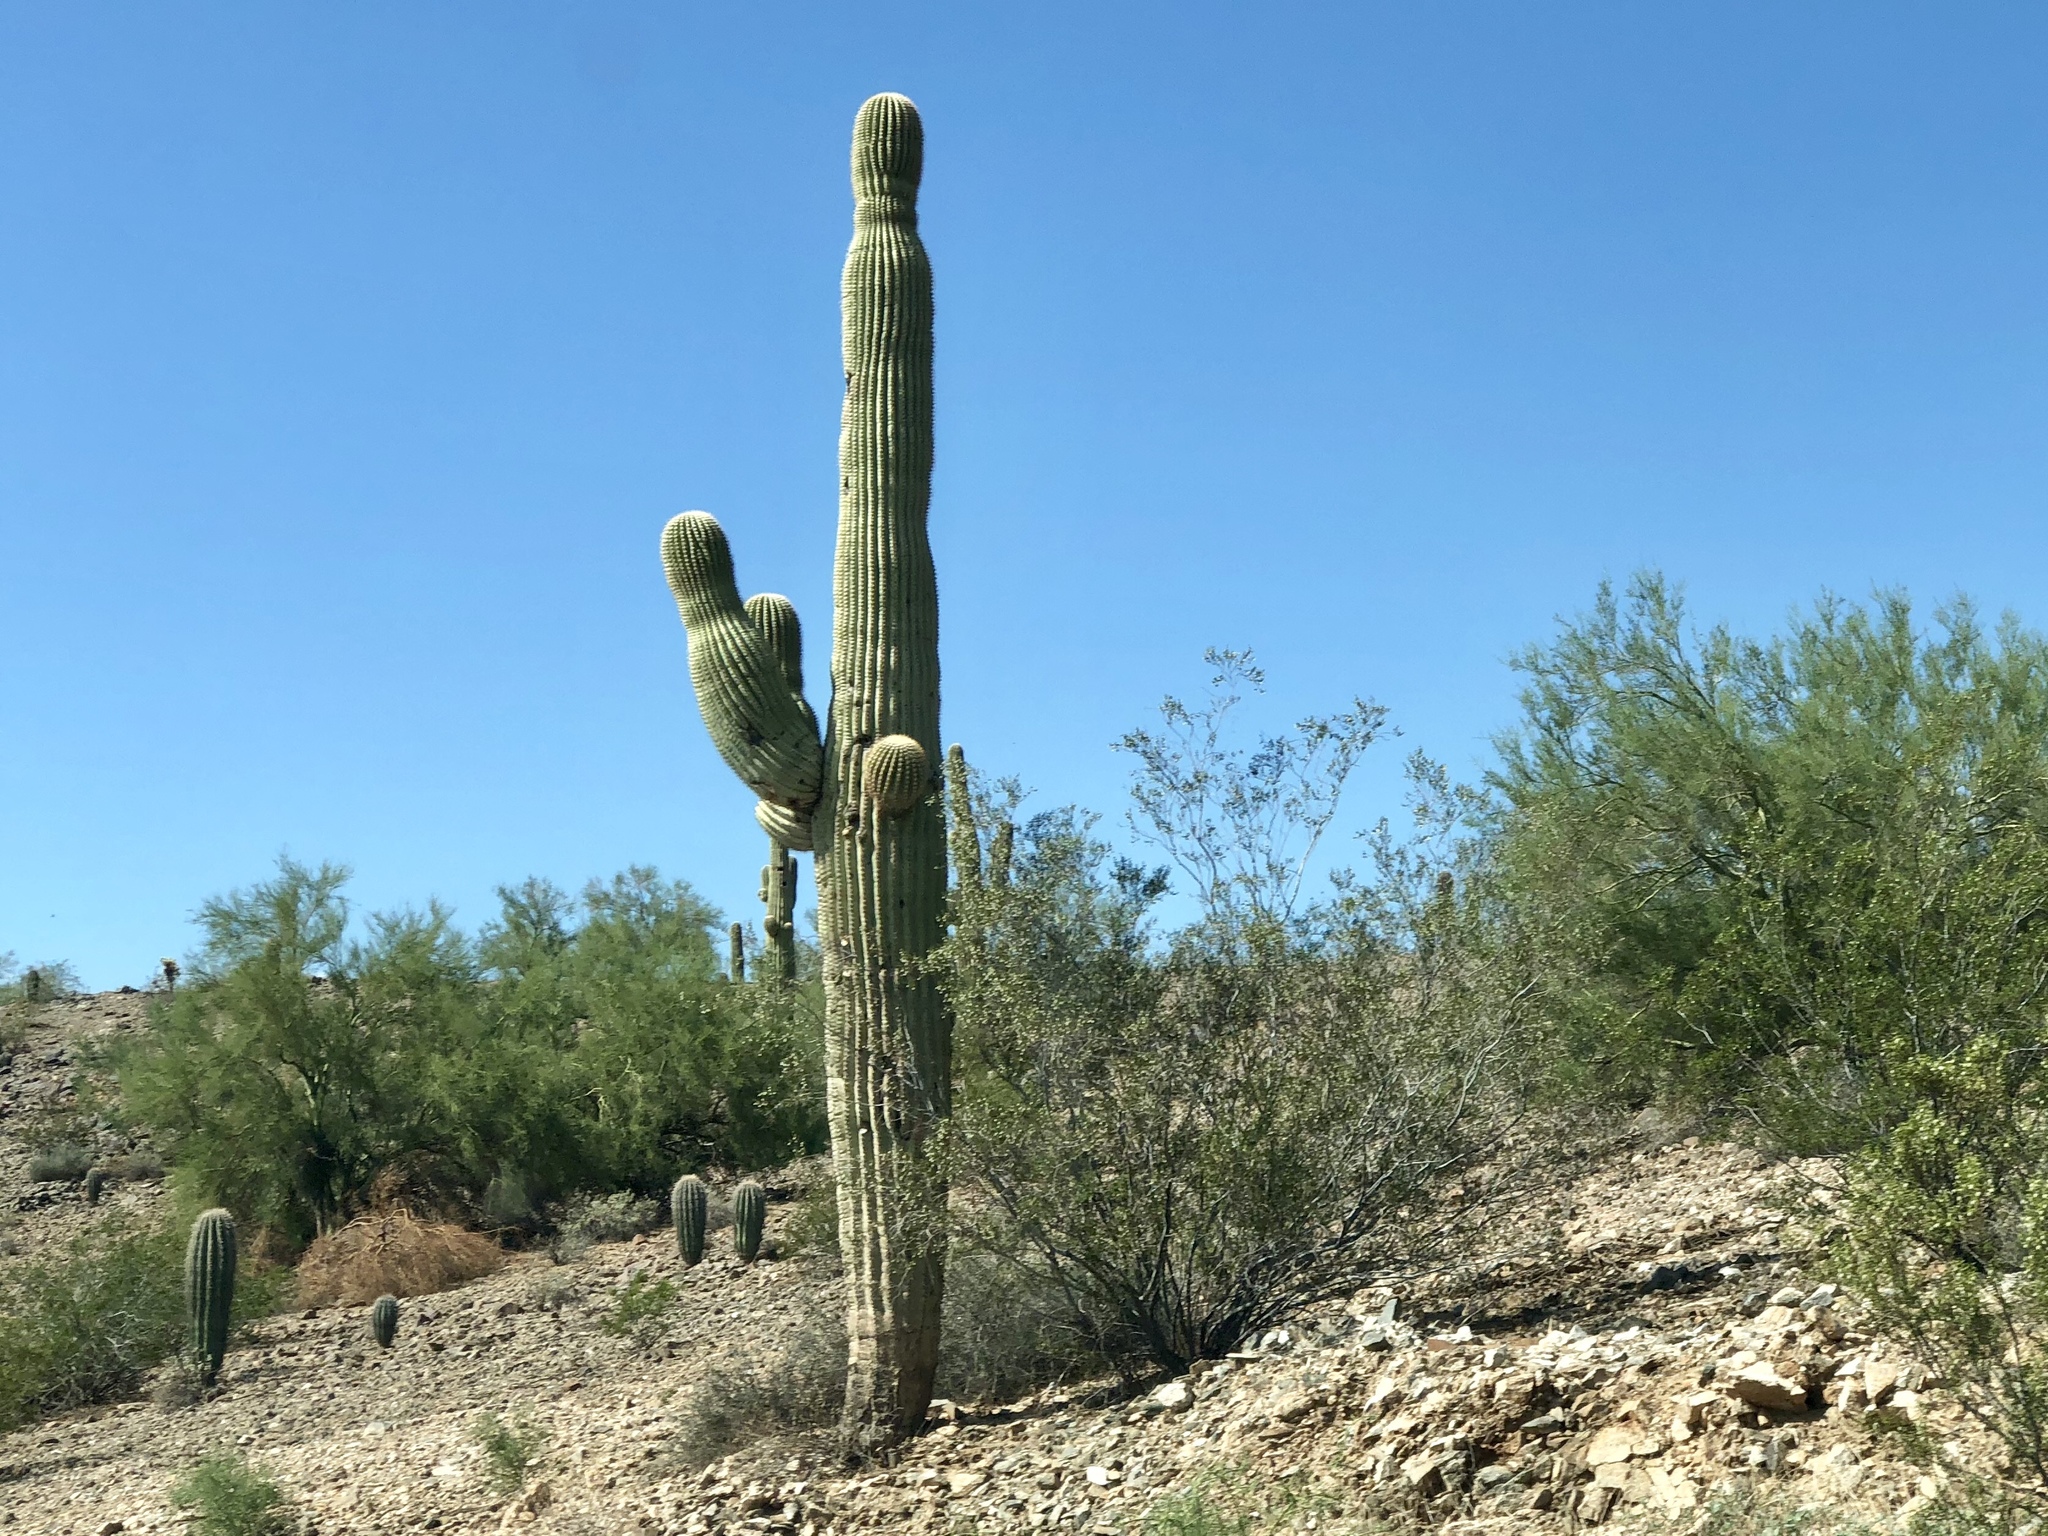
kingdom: Plantae
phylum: Tracheophyta
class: Magnoliopsida
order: Caryophyllales
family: Cactaceae
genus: Carnegiea
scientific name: Carnegiea gigantea
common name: Saguaro
